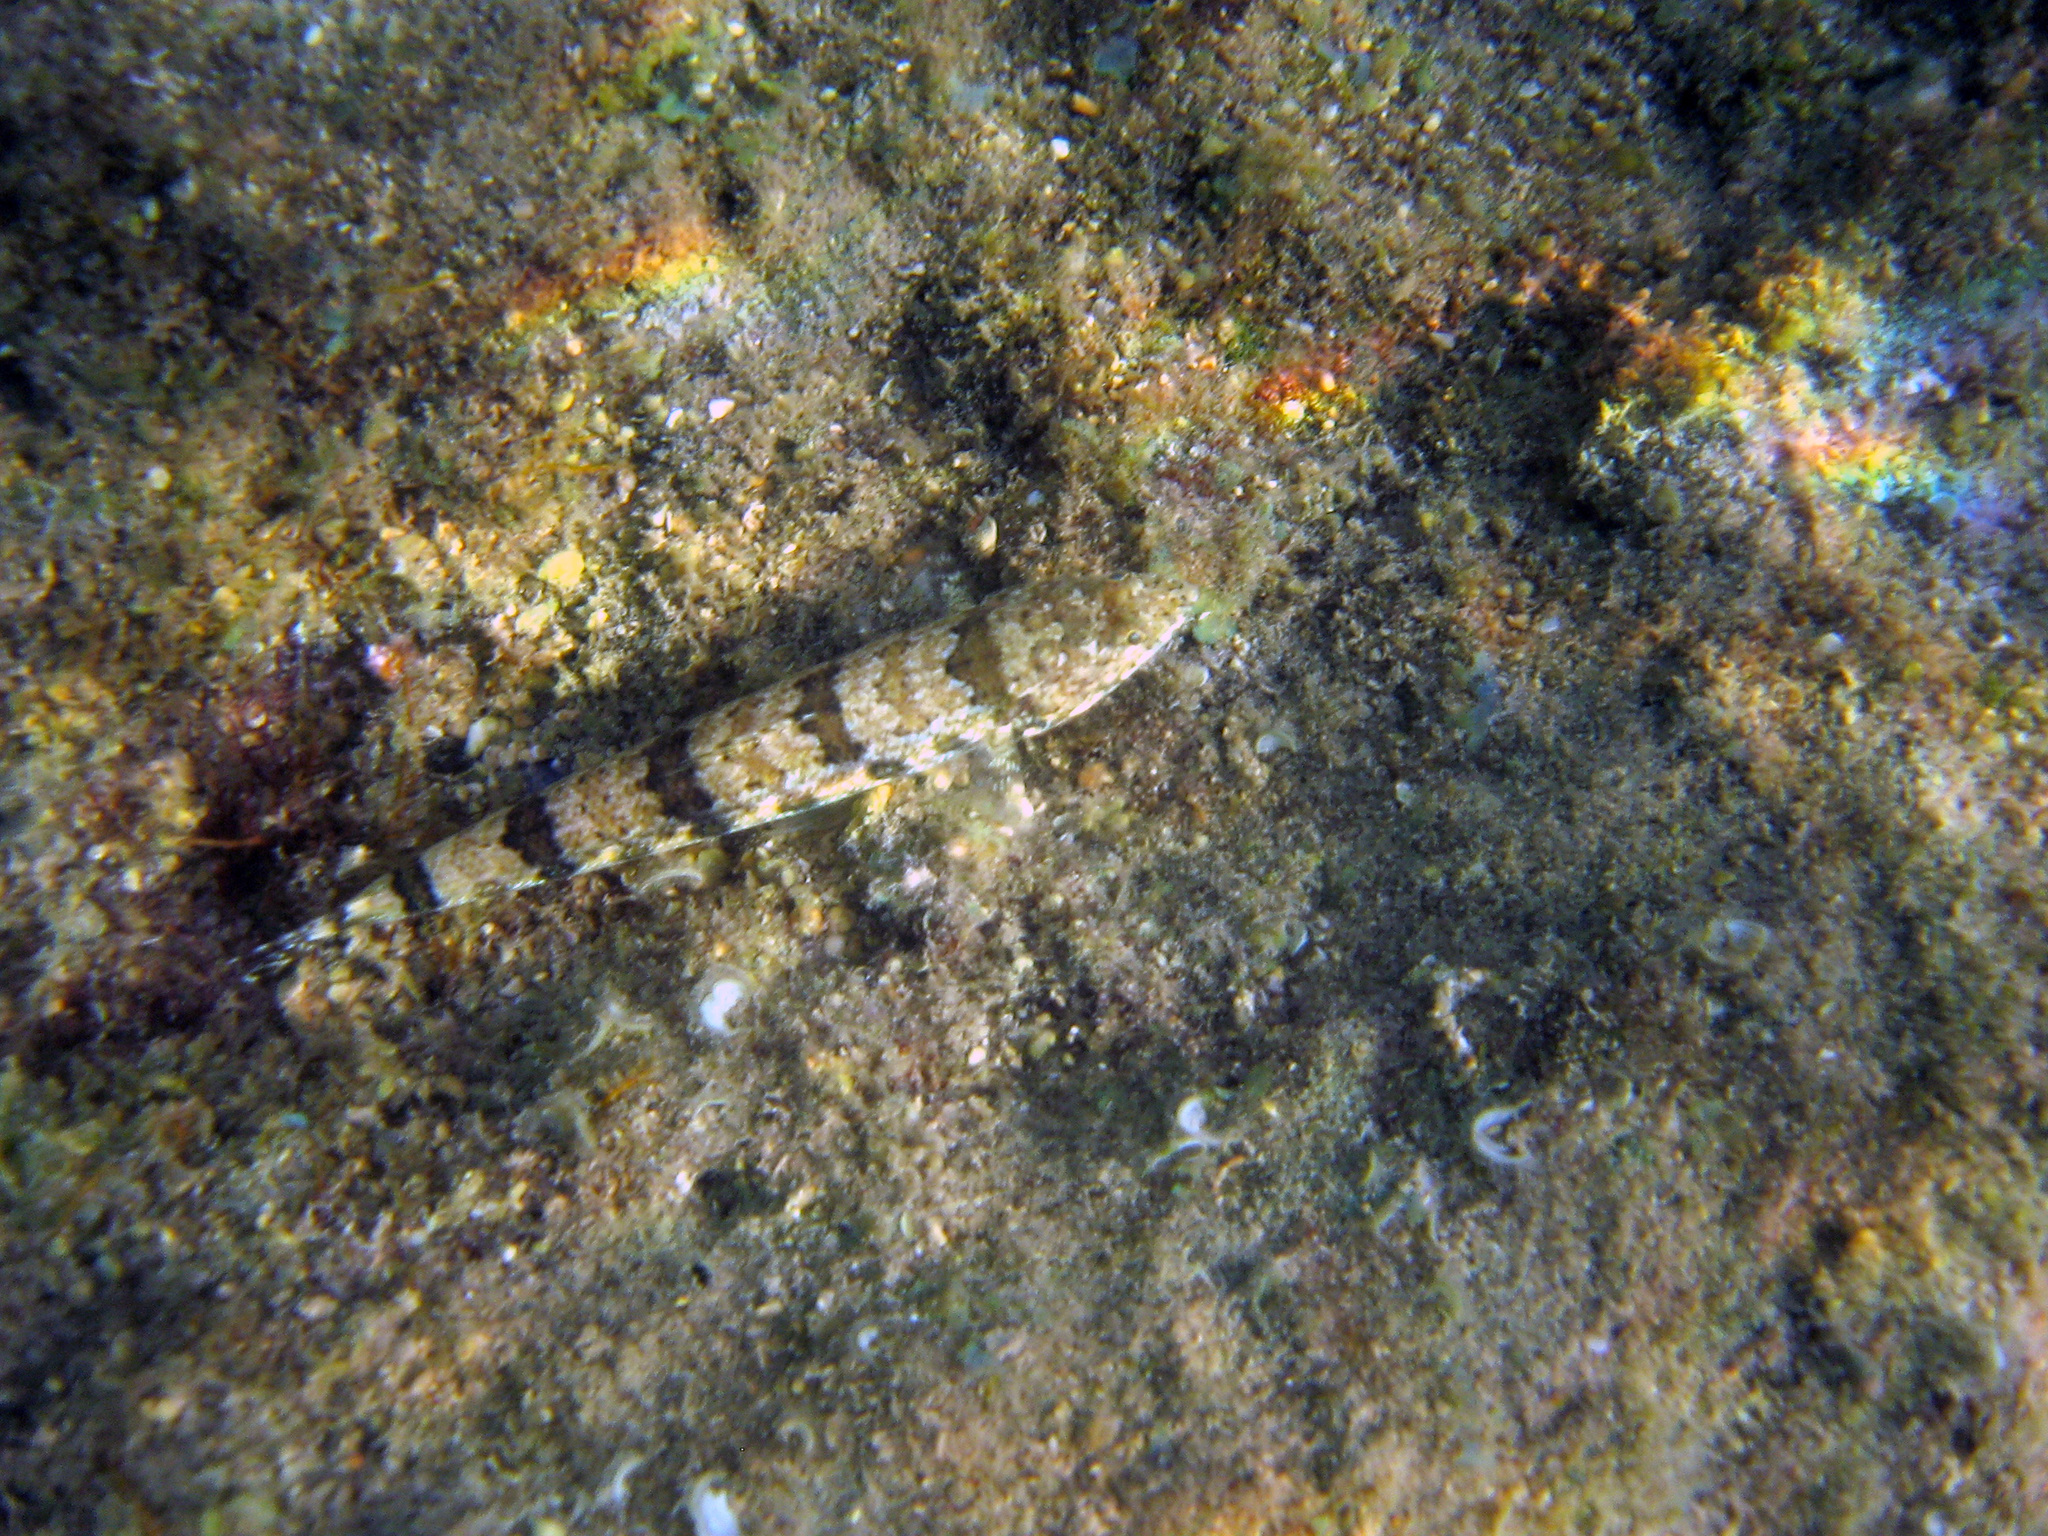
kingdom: Animalia
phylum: Chordata
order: Aulopiformes
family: Synodontidae
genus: Synodus
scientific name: Synodus dermatogenys
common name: Banded lizardfish
